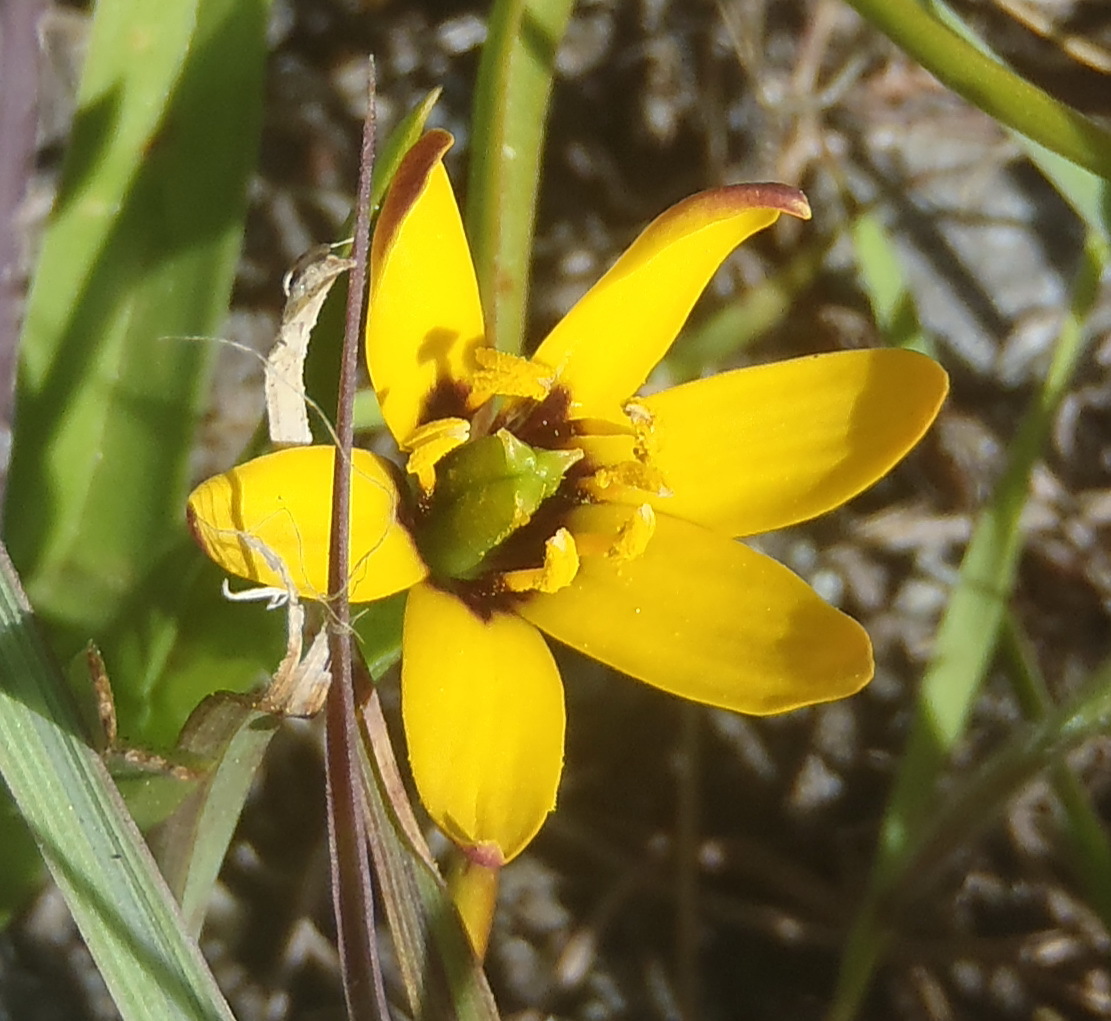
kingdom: Plantae
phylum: Tracheophyta
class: Liliopsida
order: Liliales
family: Colchicaceae
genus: Baeometra
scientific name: Baeometra uniflora
